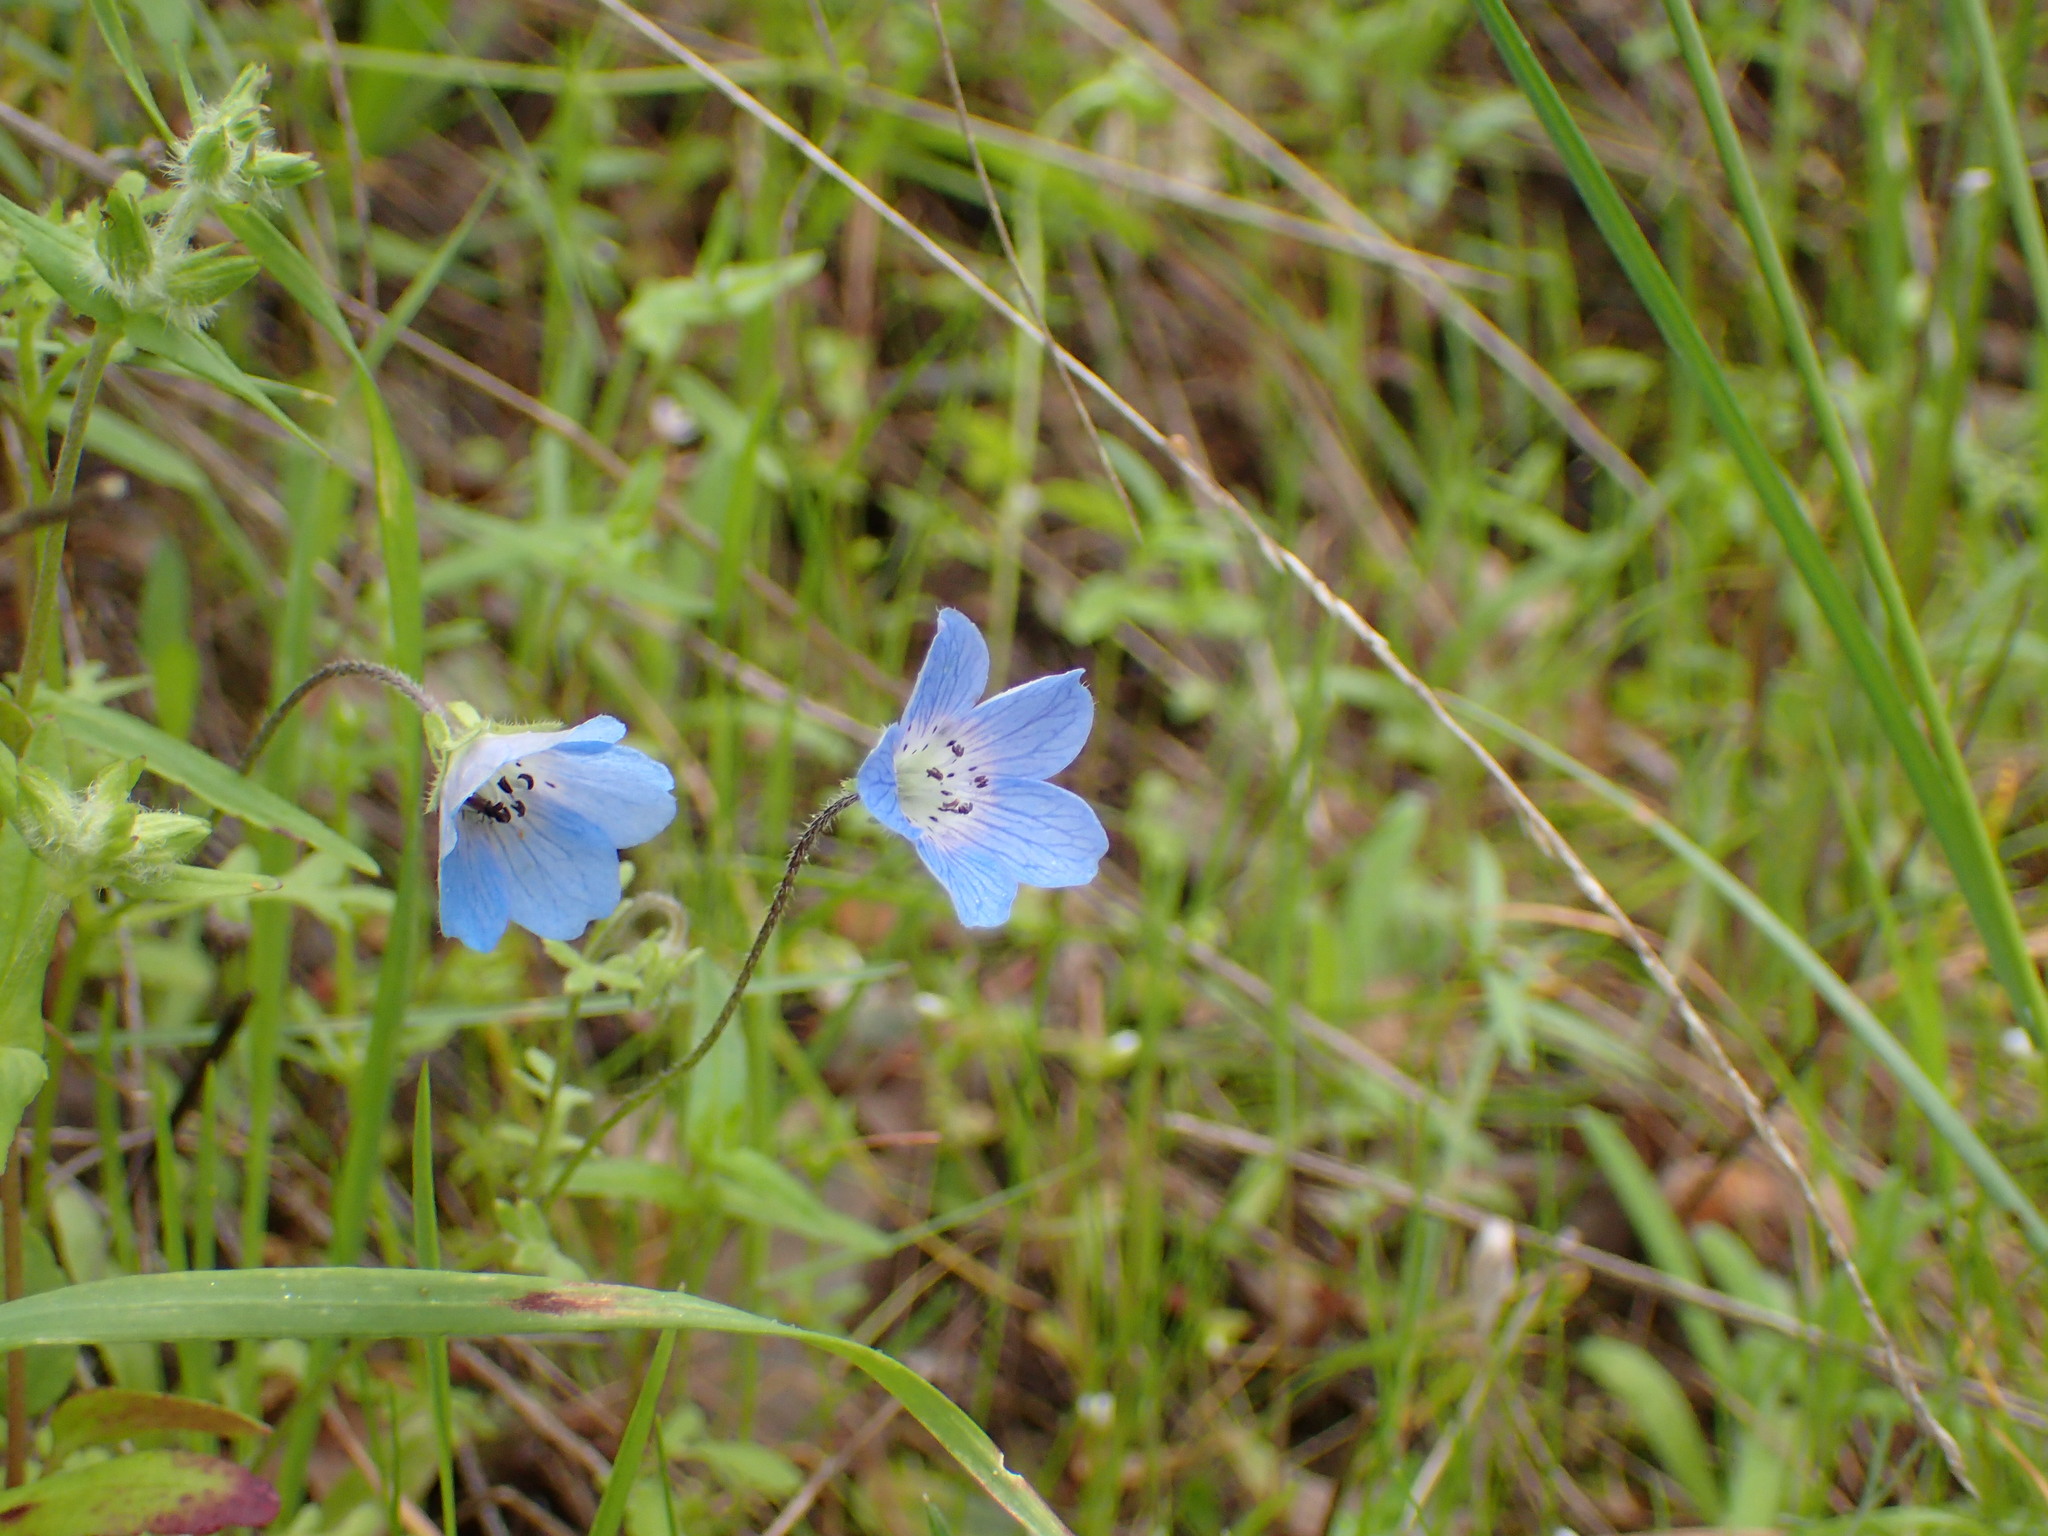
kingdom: Plantae
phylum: Tracheophyta
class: Magnoliopsida
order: Boraginales
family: Hydrophyllaceae
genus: Nemophila
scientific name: Nemophila menziesii
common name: Baby's-blue-eyes
